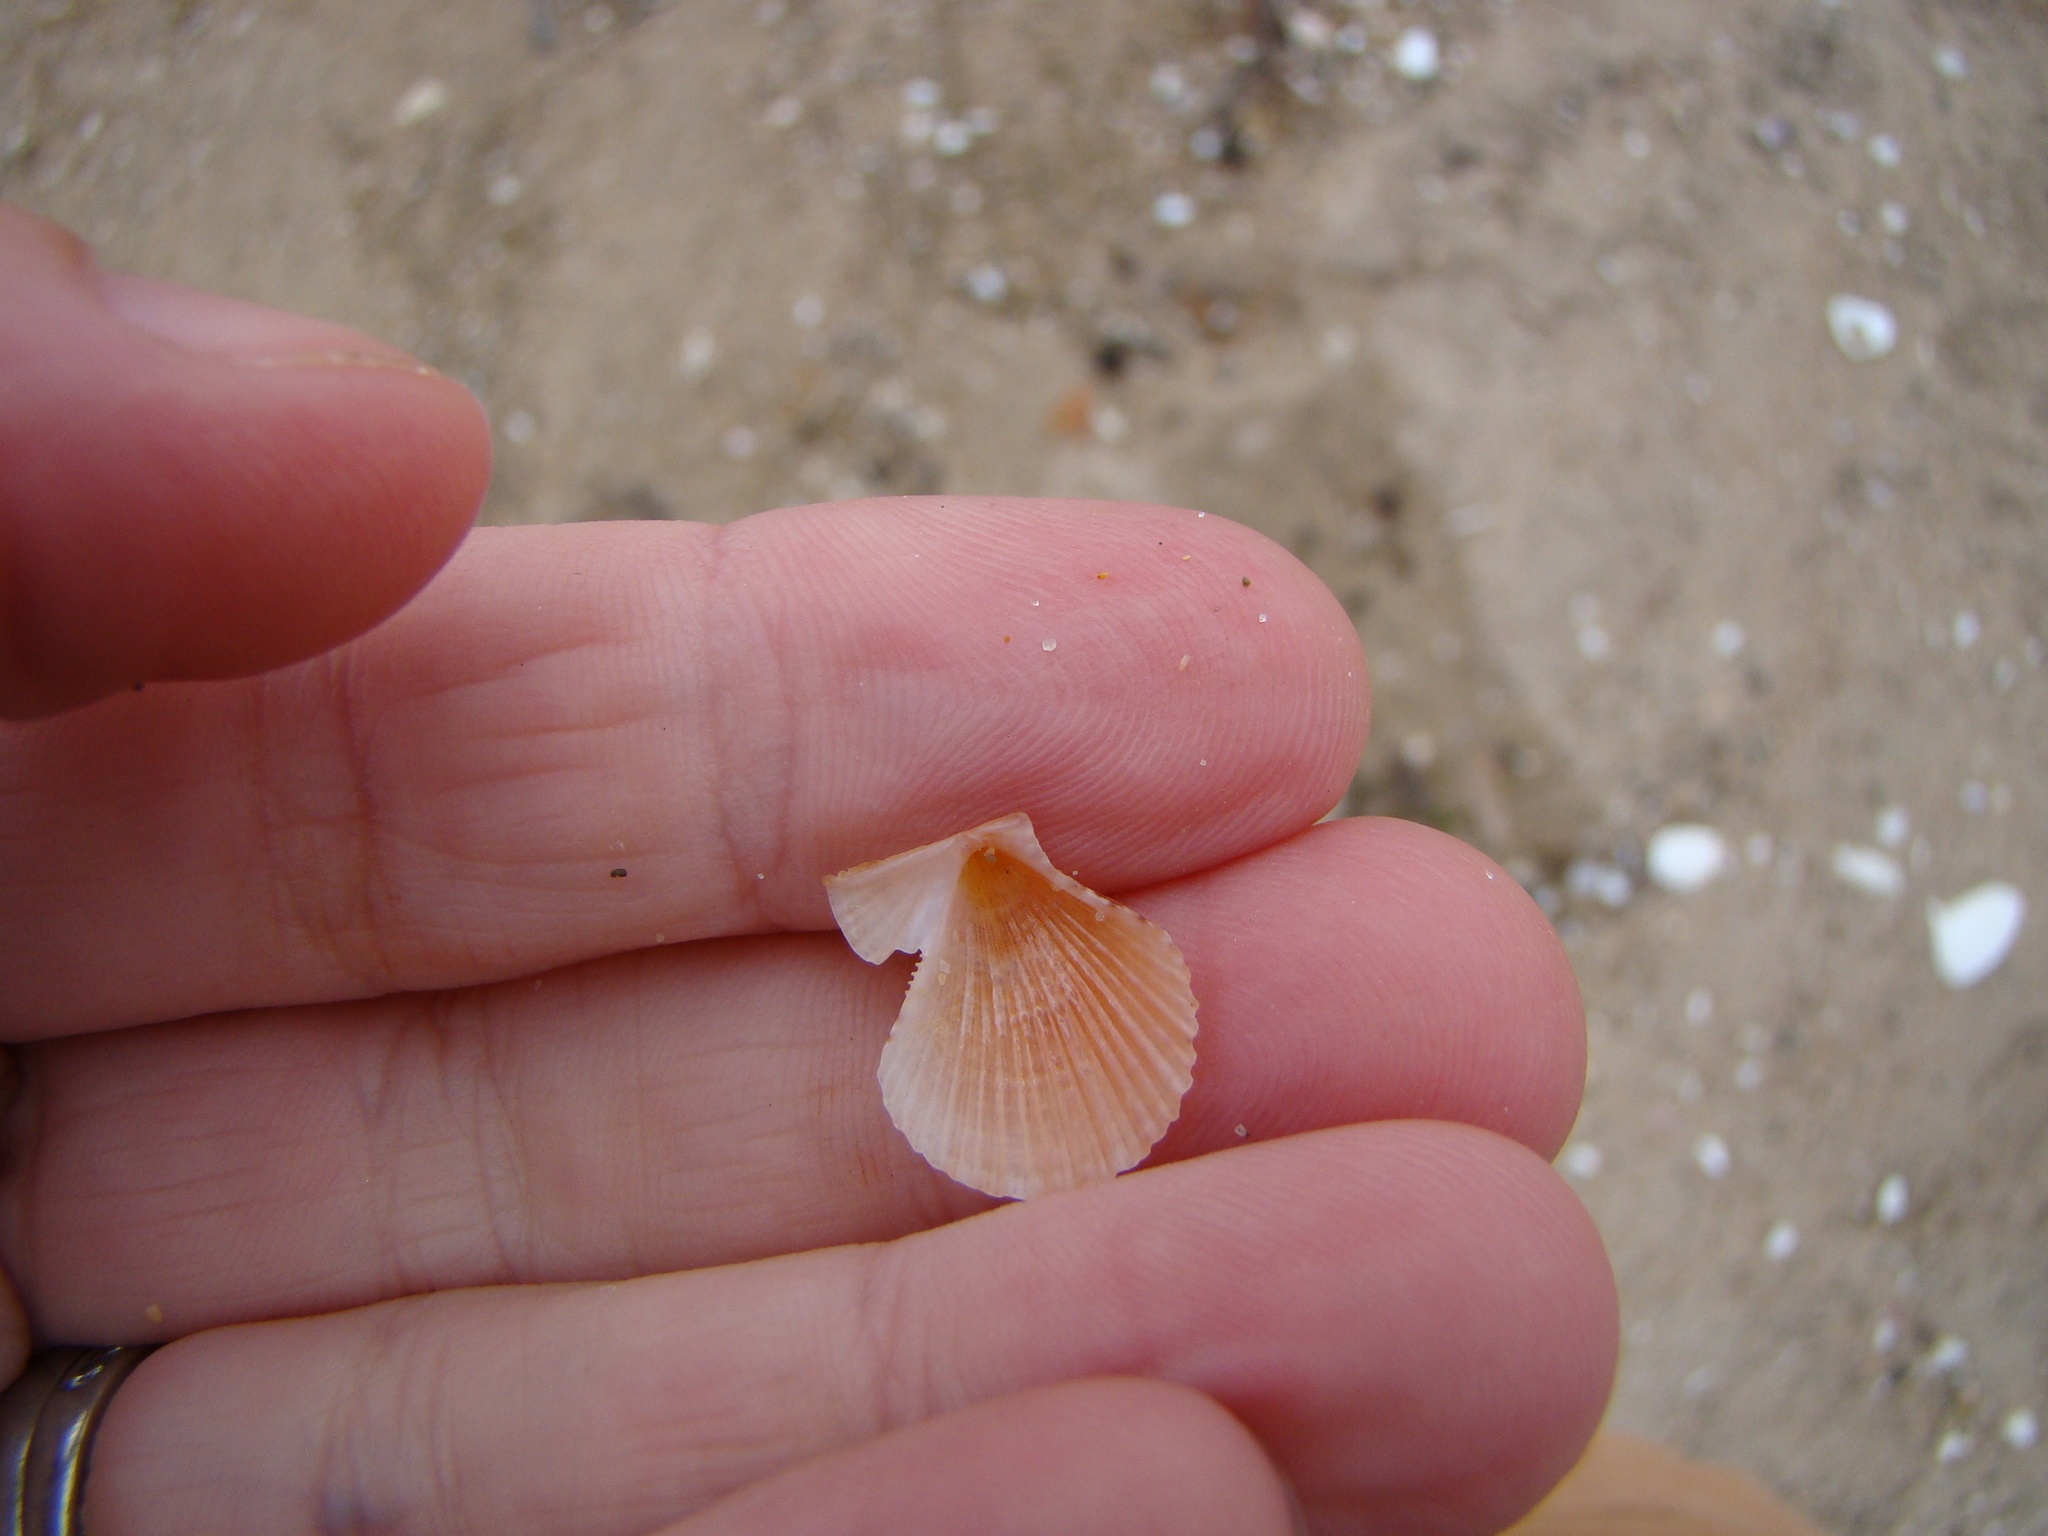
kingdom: Animalia
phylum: Mollusca
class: Bivalvia
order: Pectinida
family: Pectinidae
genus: Talochlamys
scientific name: Talochlamys zelandiae
